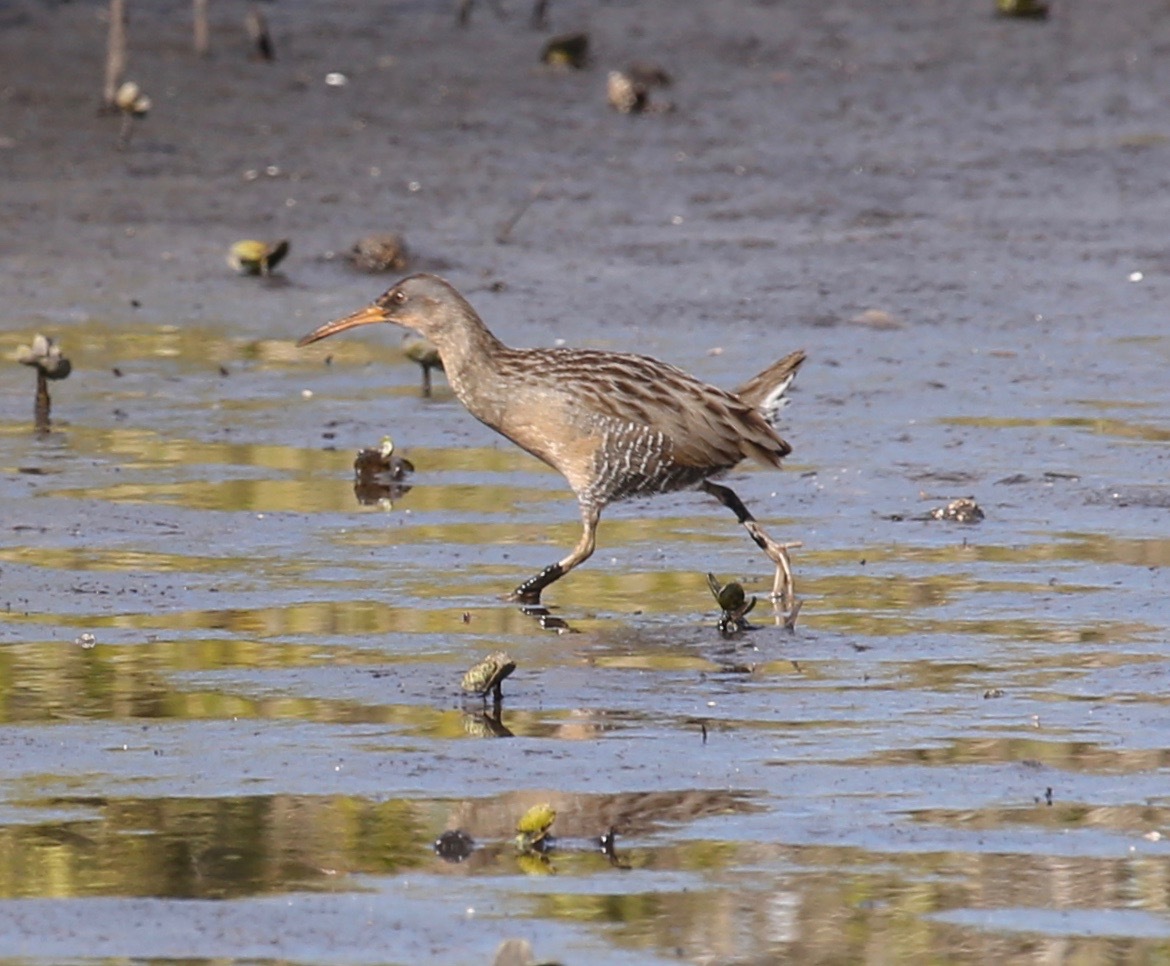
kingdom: Animalia
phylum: Chordata
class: Aves
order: Gruiformes
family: Rallidae
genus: Rallus
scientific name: Rallus crepitans
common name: Clapper rail
